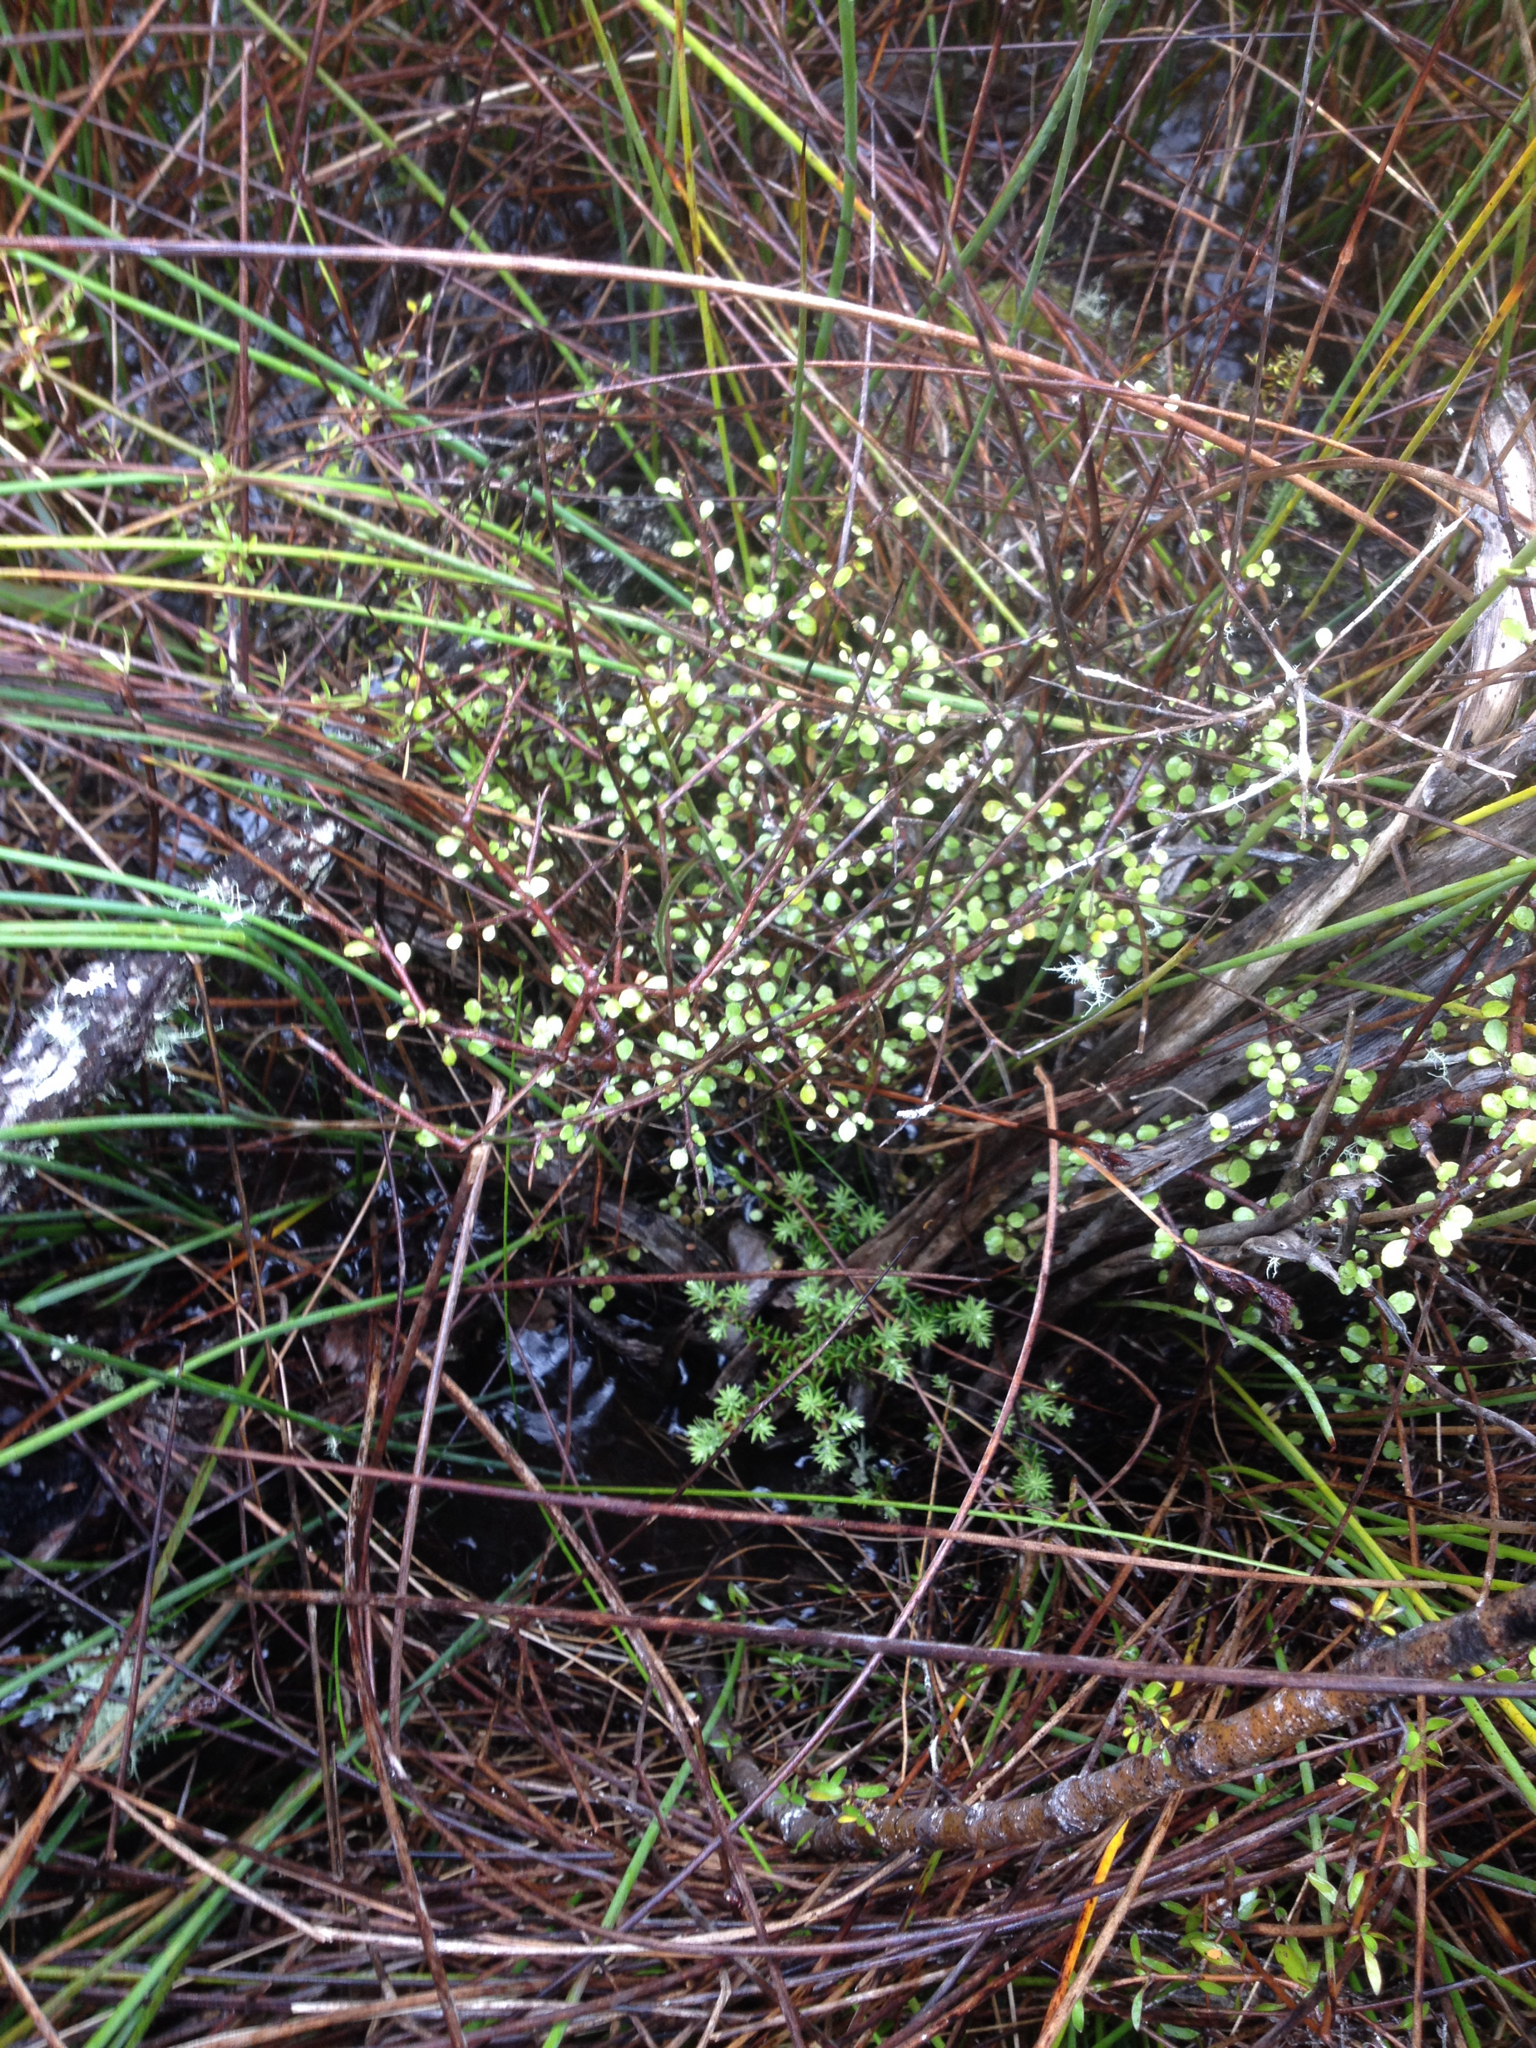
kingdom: Plantae
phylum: Tracheophyta
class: Magnoliopsida
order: Apiales
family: Araliaceae
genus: Raukaua
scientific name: Raukaua anomalus
